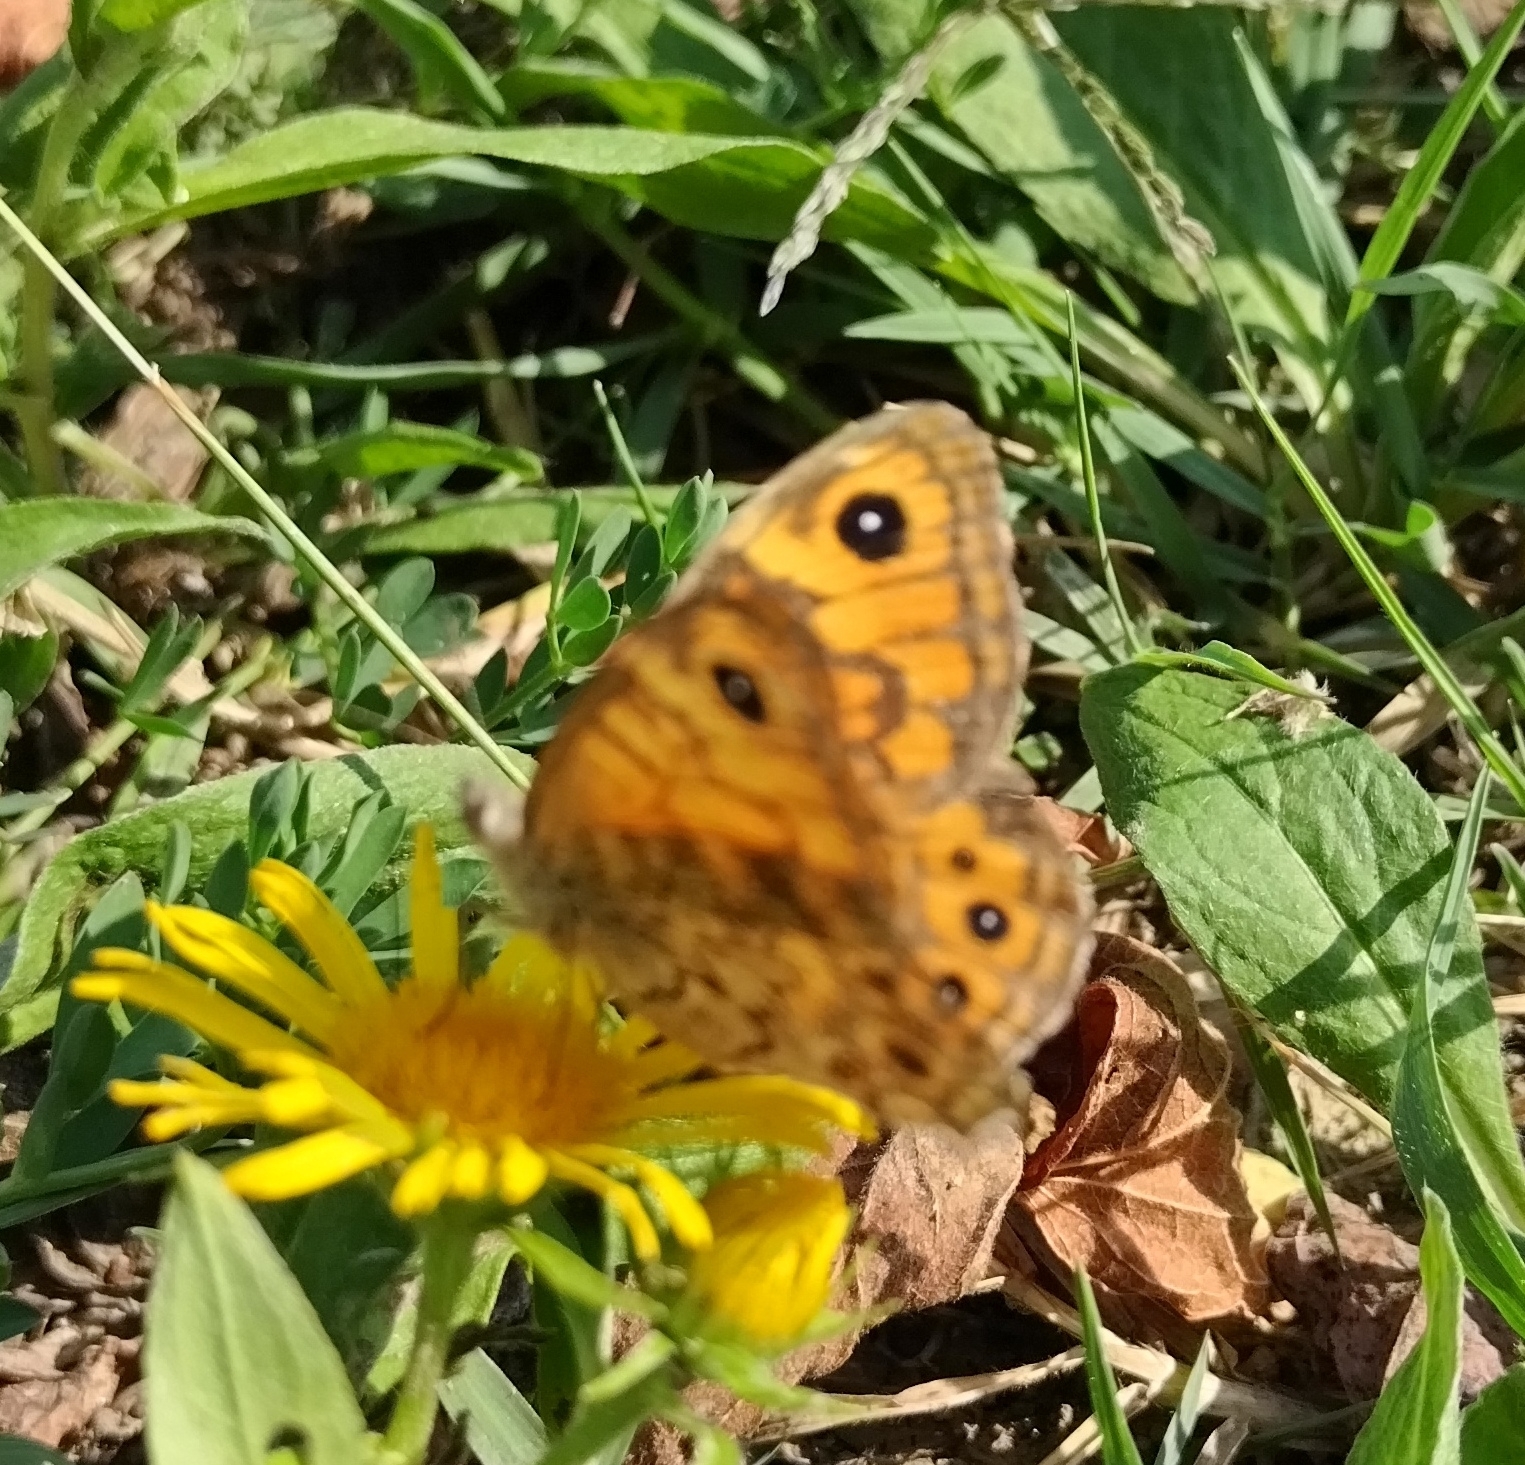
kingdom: Animalia
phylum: Arthropoda
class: Insecta
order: Lepidoptera
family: Nymphalidae
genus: Pararge
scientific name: Pararge Lasiommata megera
